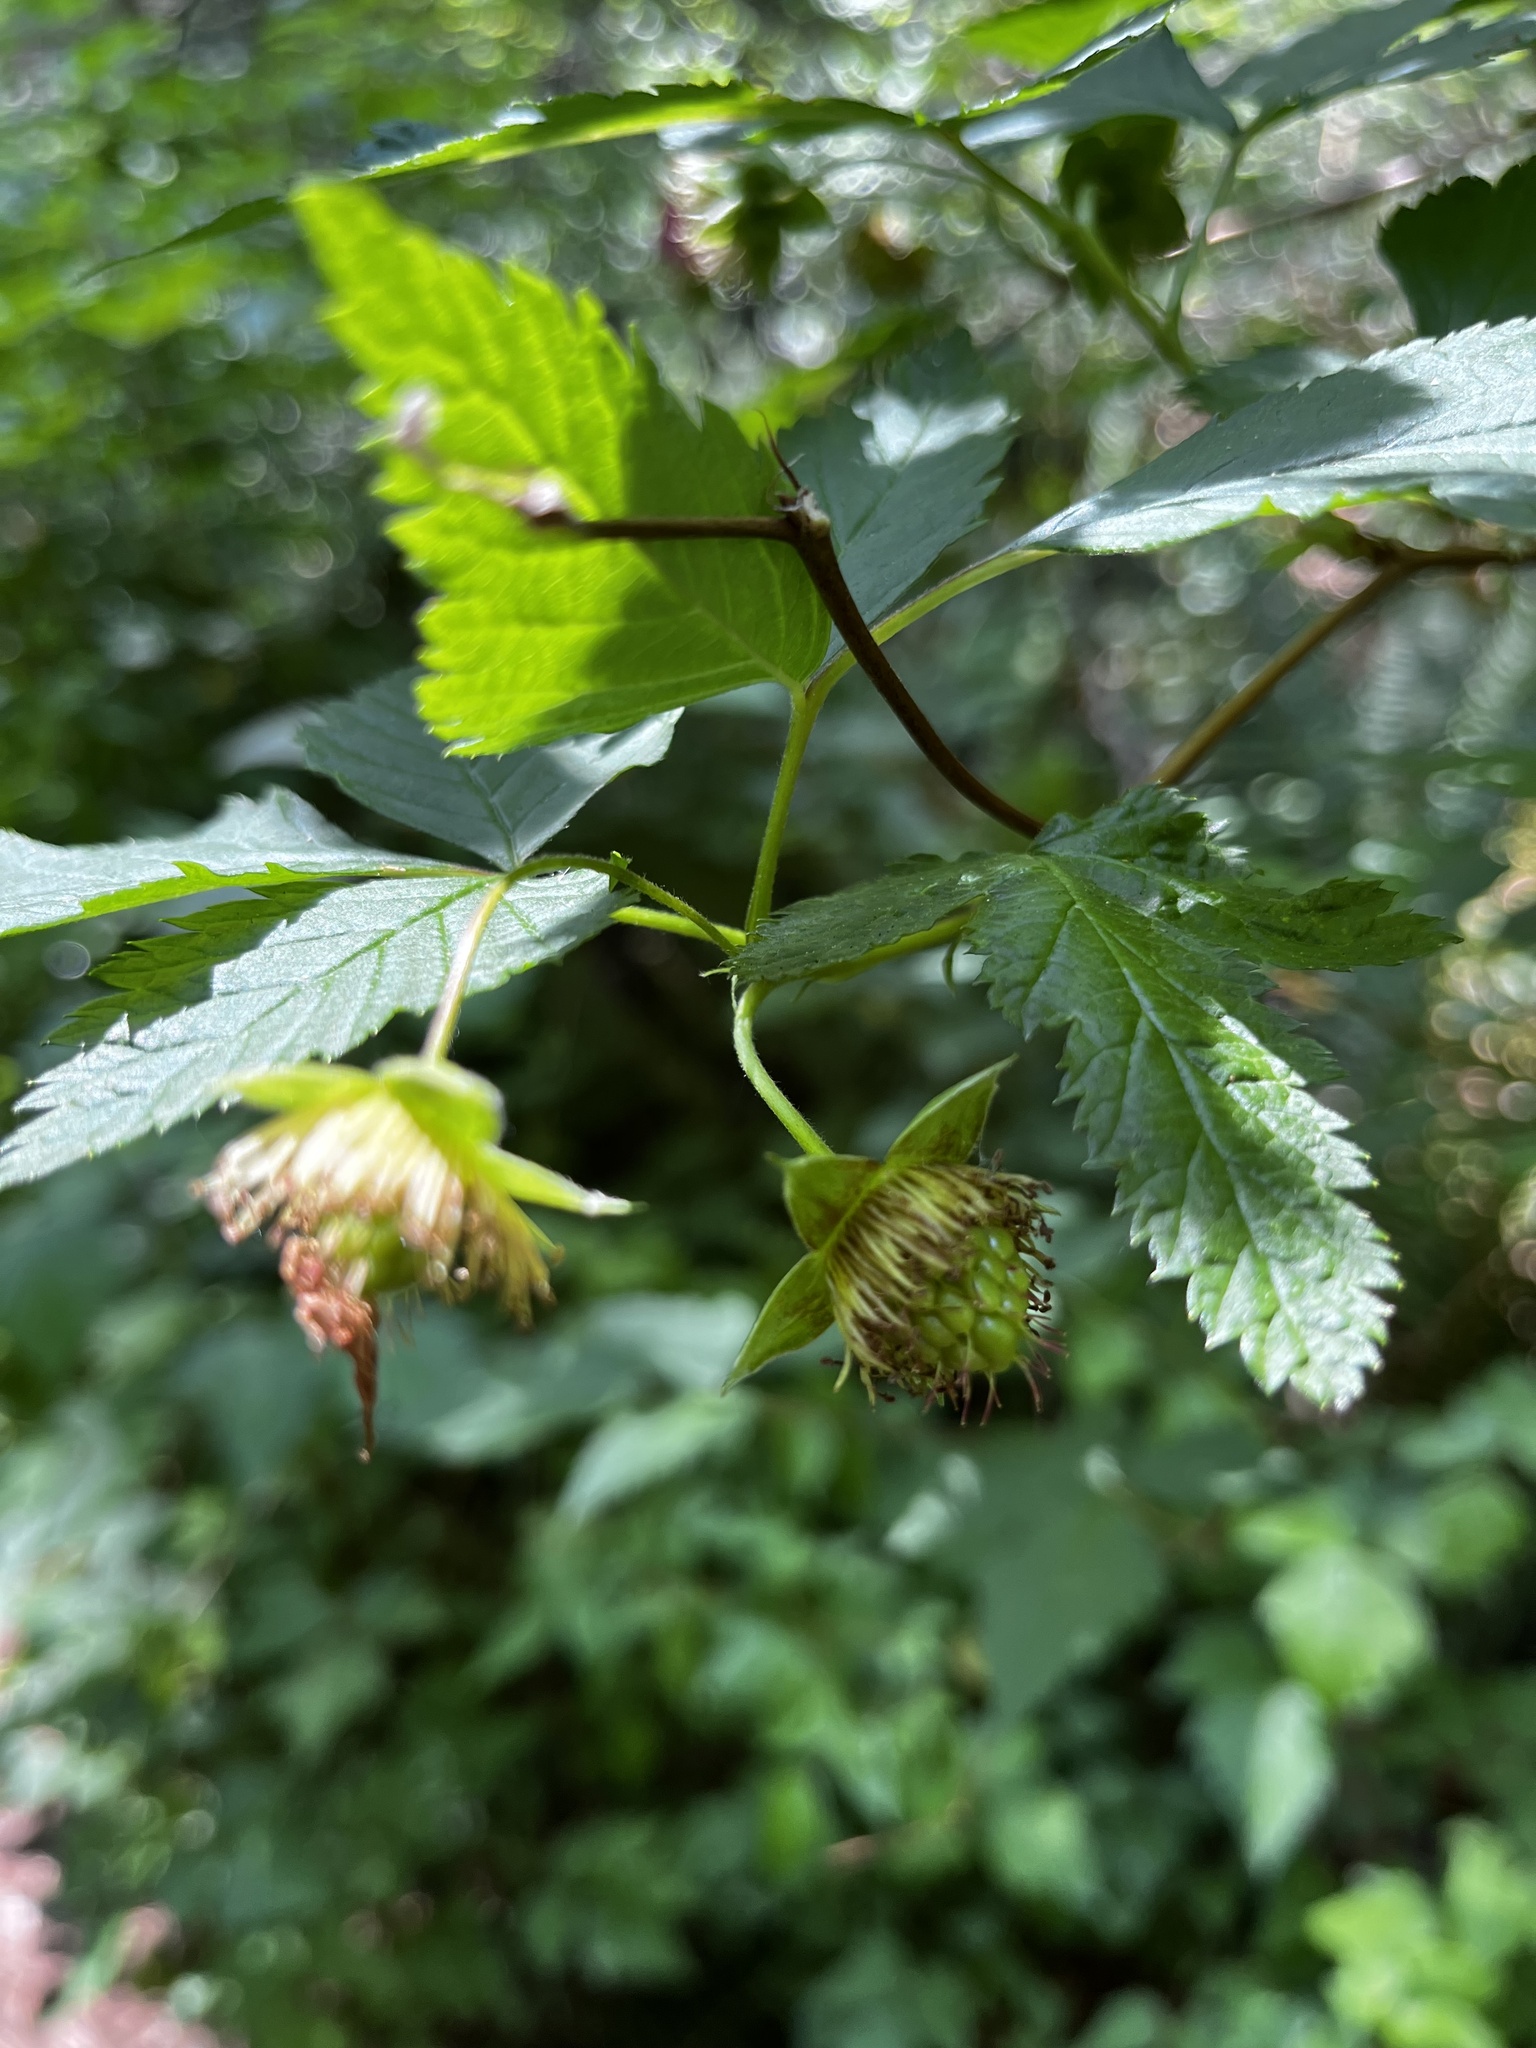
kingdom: Plantae
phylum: Tracheophyta
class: Magnoliopsida
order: Rosales
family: Rosaceae
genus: Rubus
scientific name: Rubus spectabilis
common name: Salmonberry
